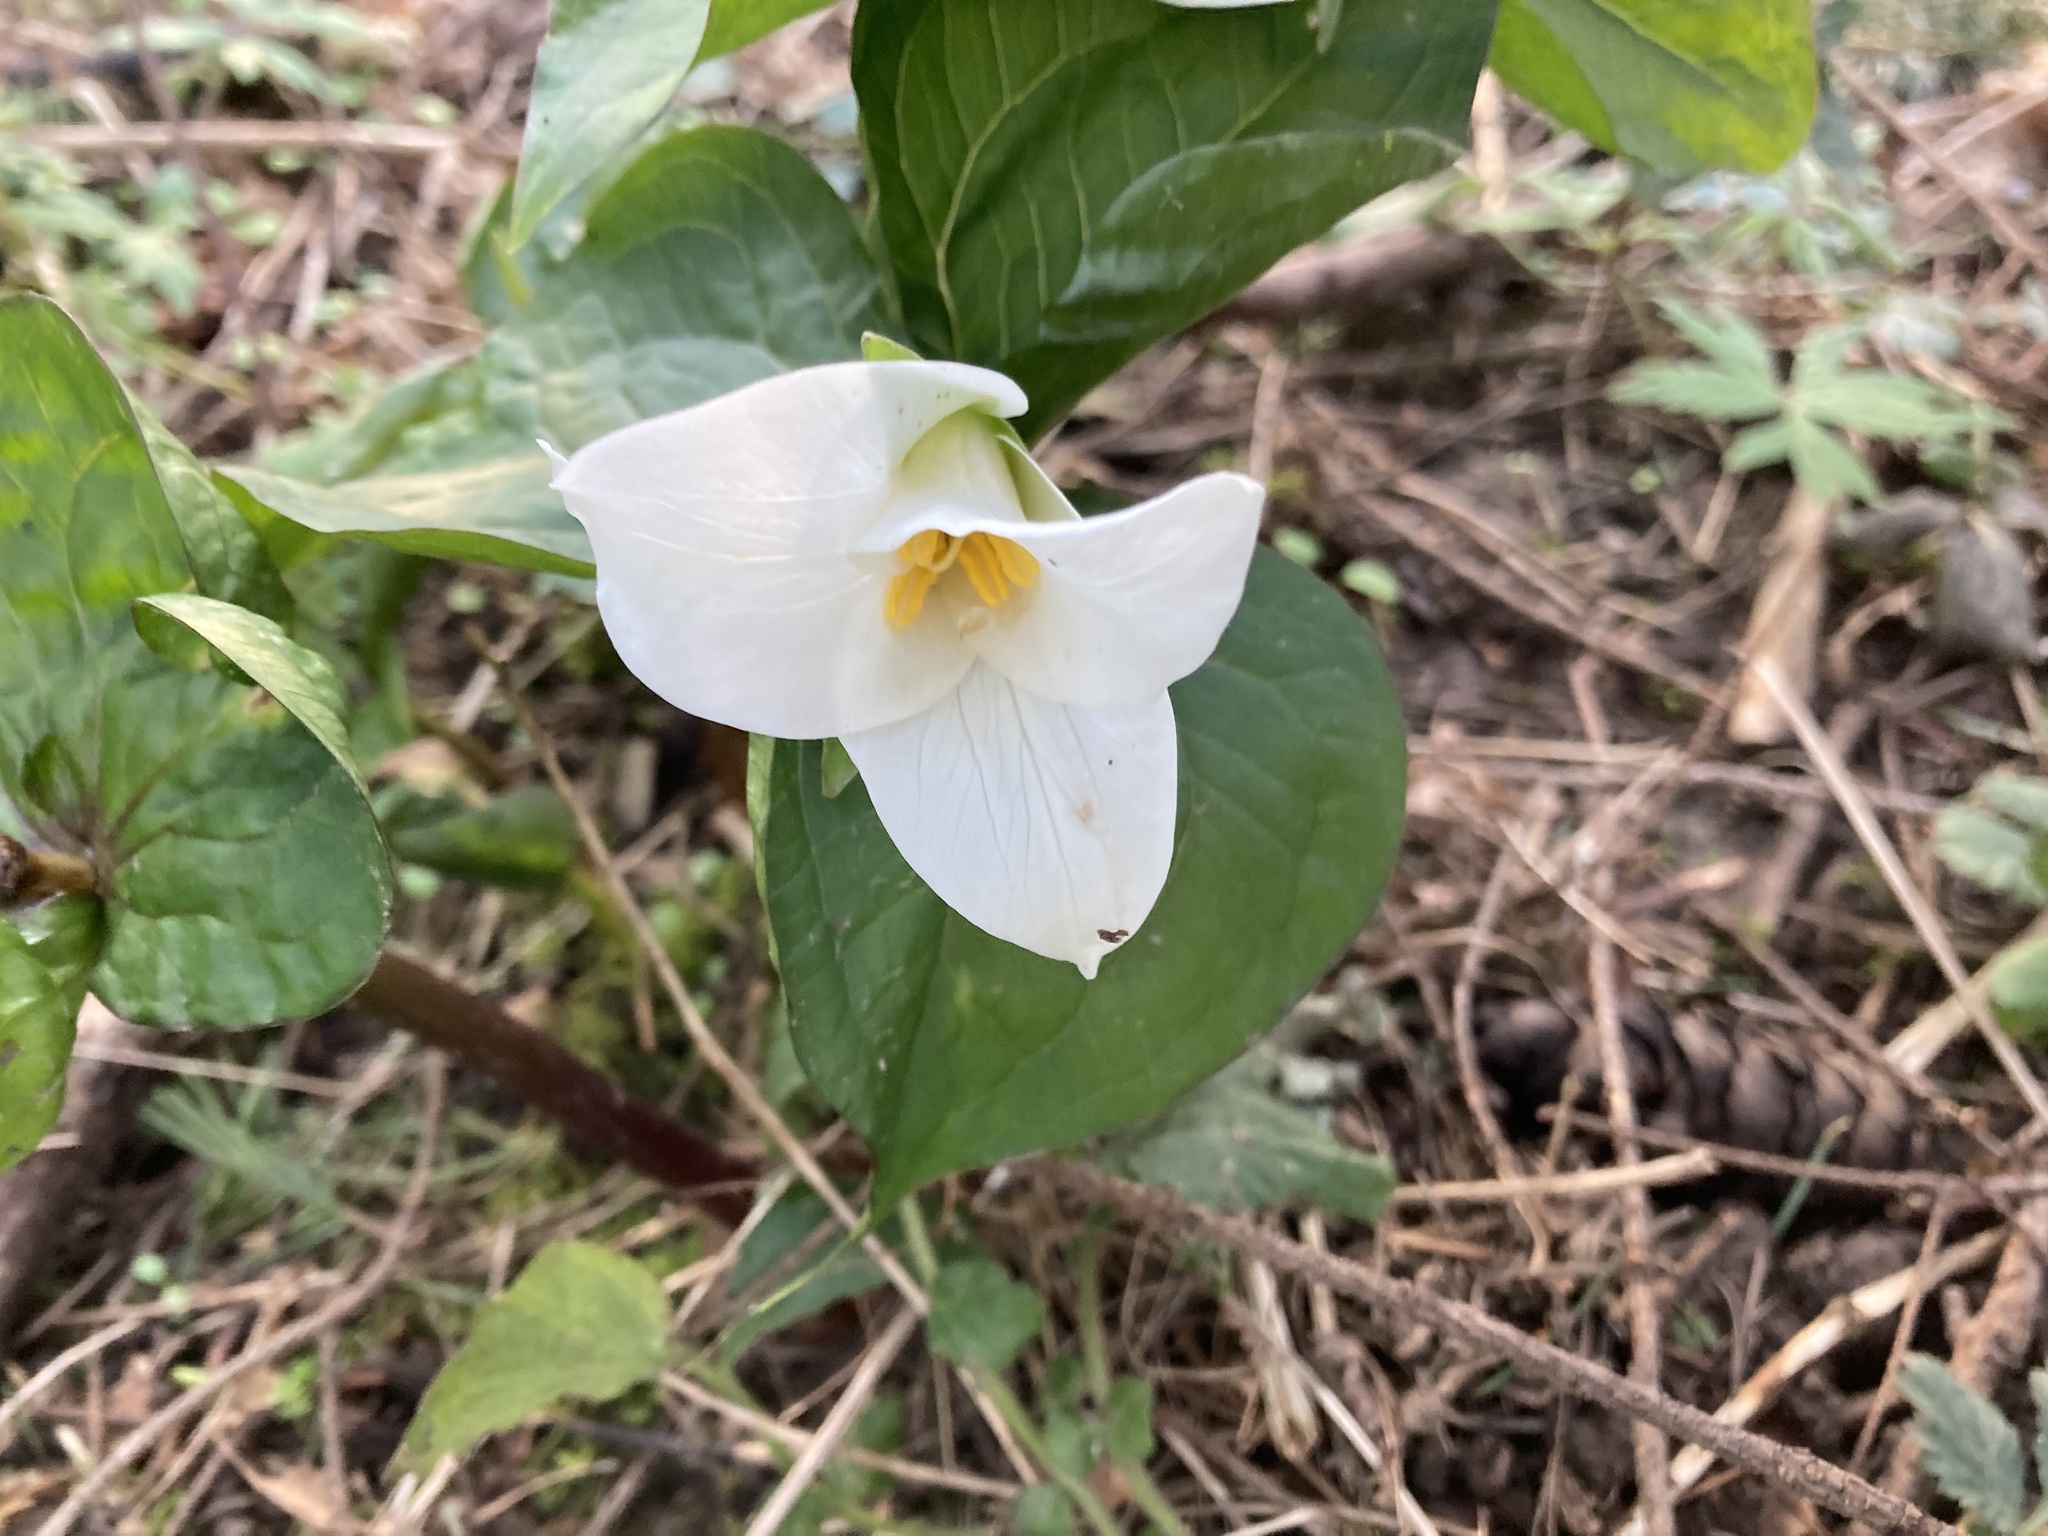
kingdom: Plantae
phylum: Tracheophyta
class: Liliopsida
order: Liliales
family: Melanthiaceae
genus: Trillium
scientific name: Trillium ovatum
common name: Pacific trillium
